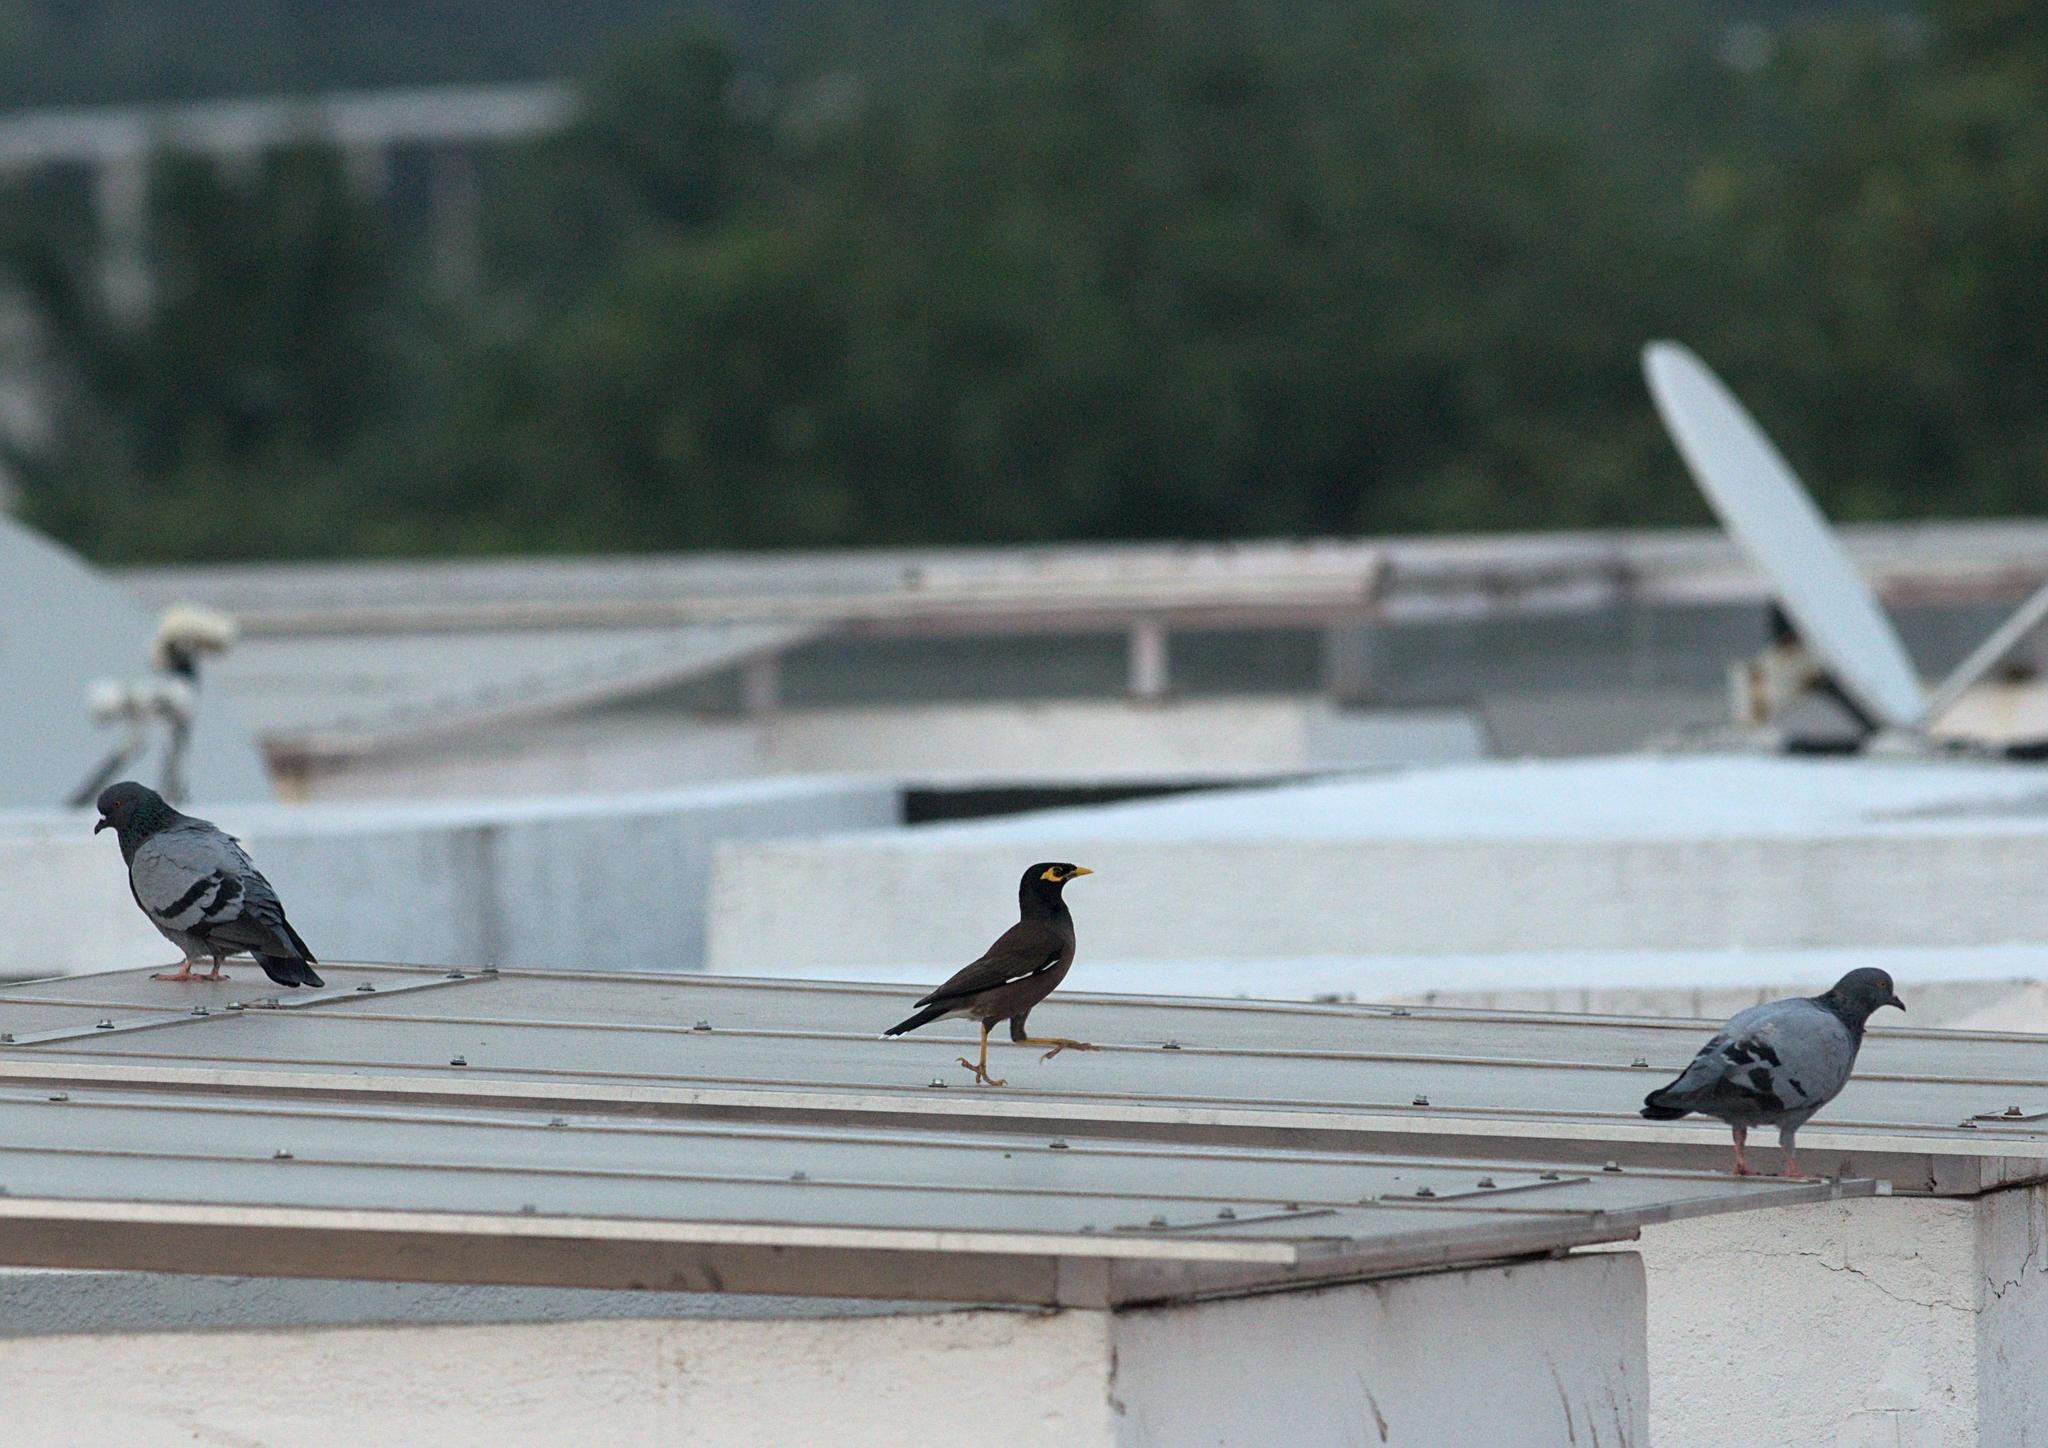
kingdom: Animalia
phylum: Chordata
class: Aves
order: Passeriformes
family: Sturnidae
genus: Acridotheres
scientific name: Acridotheres tristis
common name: Common myna
